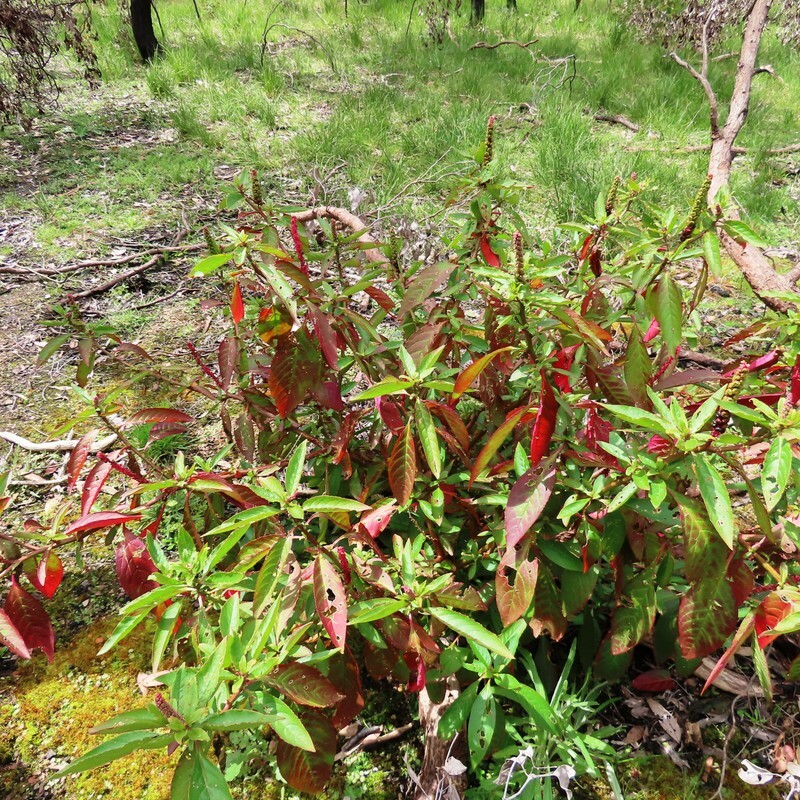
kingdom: Plantae
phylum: Tracheophyta
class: Magnoliopsida
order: Caryophyllales
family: Phytolaccaceae
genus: Phytolacca
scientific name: Phytolacca icosandra
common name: Button pokeweed
